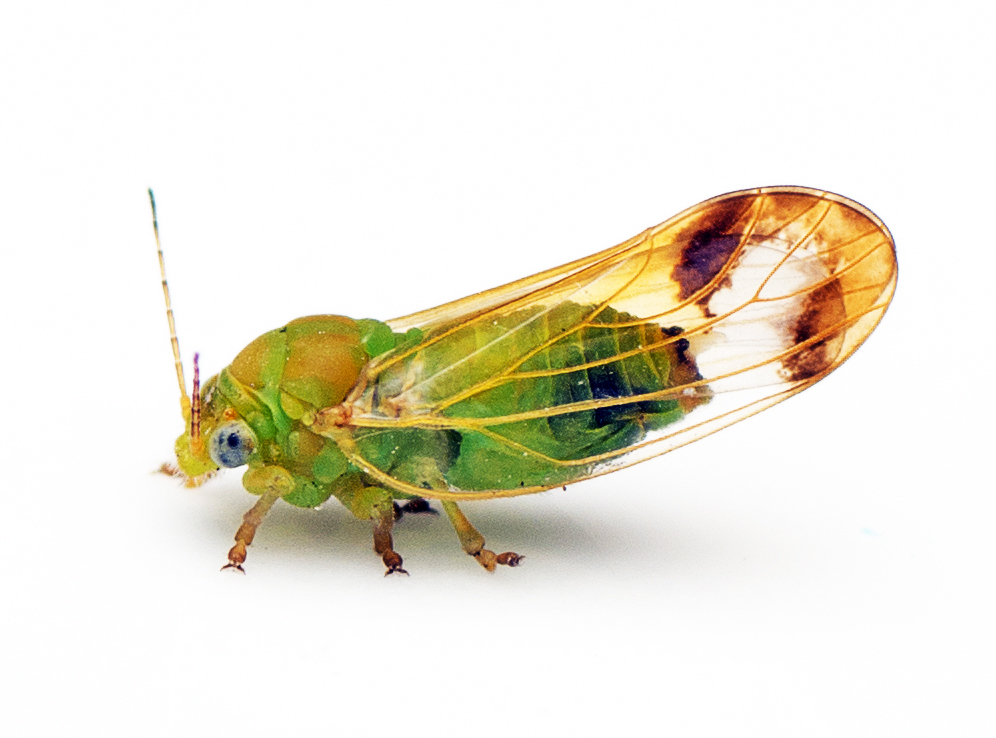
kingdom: Animalia
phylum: Arthropoda
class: Insecta
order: Hemiptera
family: Aphalaridae
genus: Australopsylla
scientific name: Australopsylla revoluta
